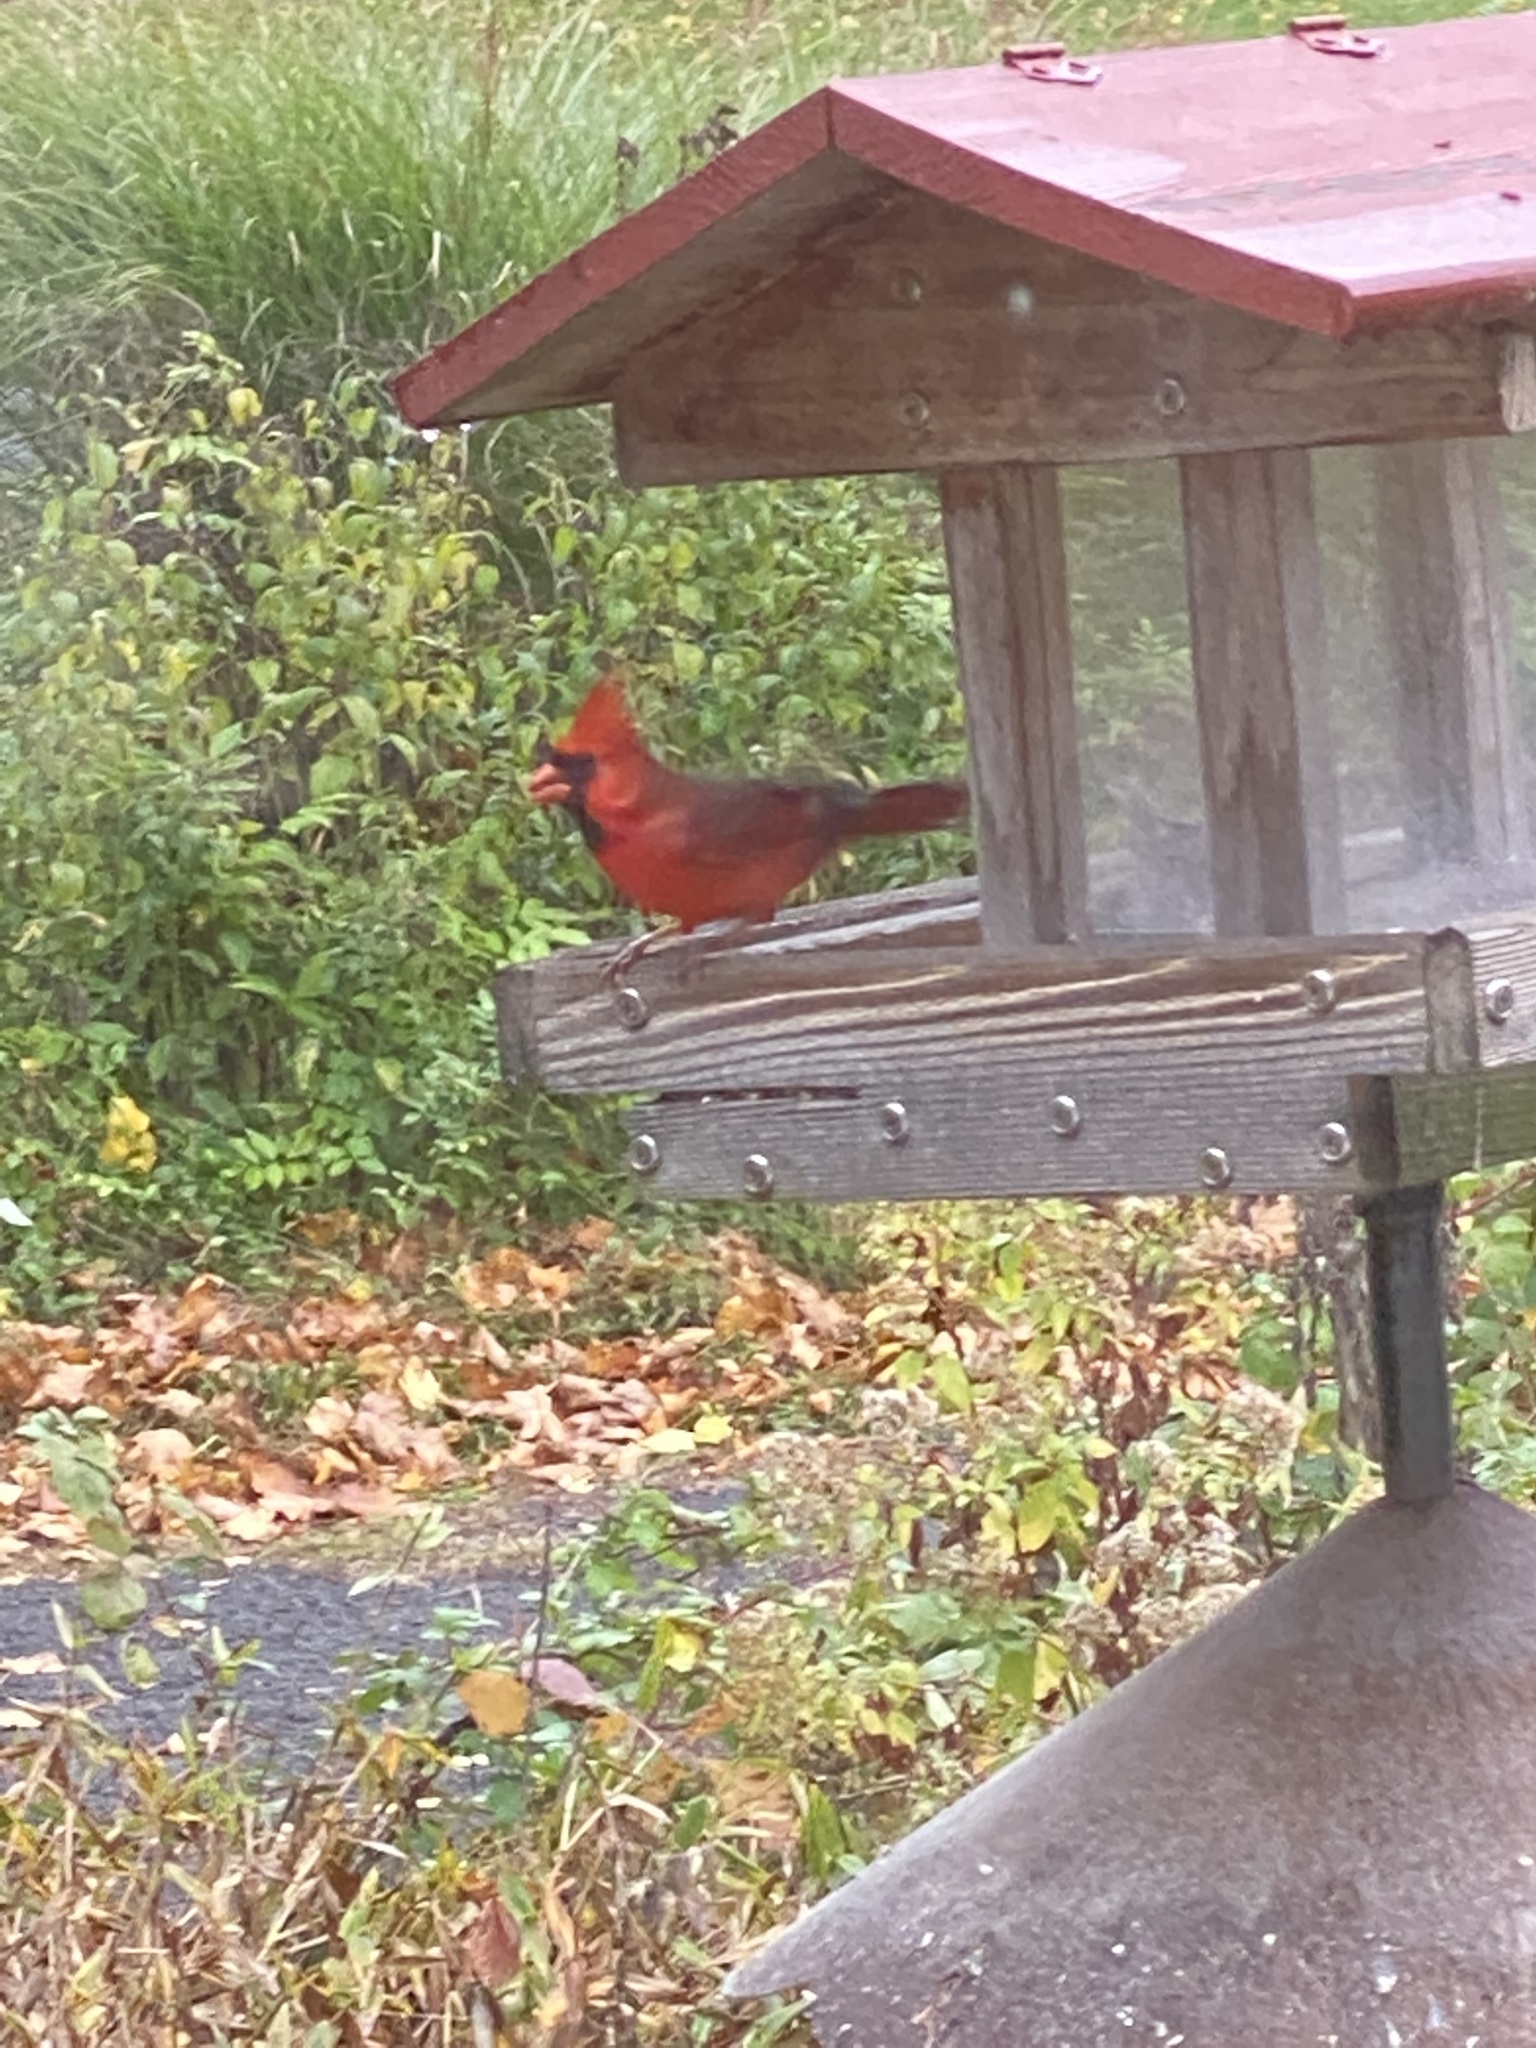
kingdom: Animalia
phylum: Chordata
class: Aves
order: Passeriformes
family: Cardinalidae
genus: Cardinalis
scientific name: Cardinalis cardinalis
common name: Northern cardinal
